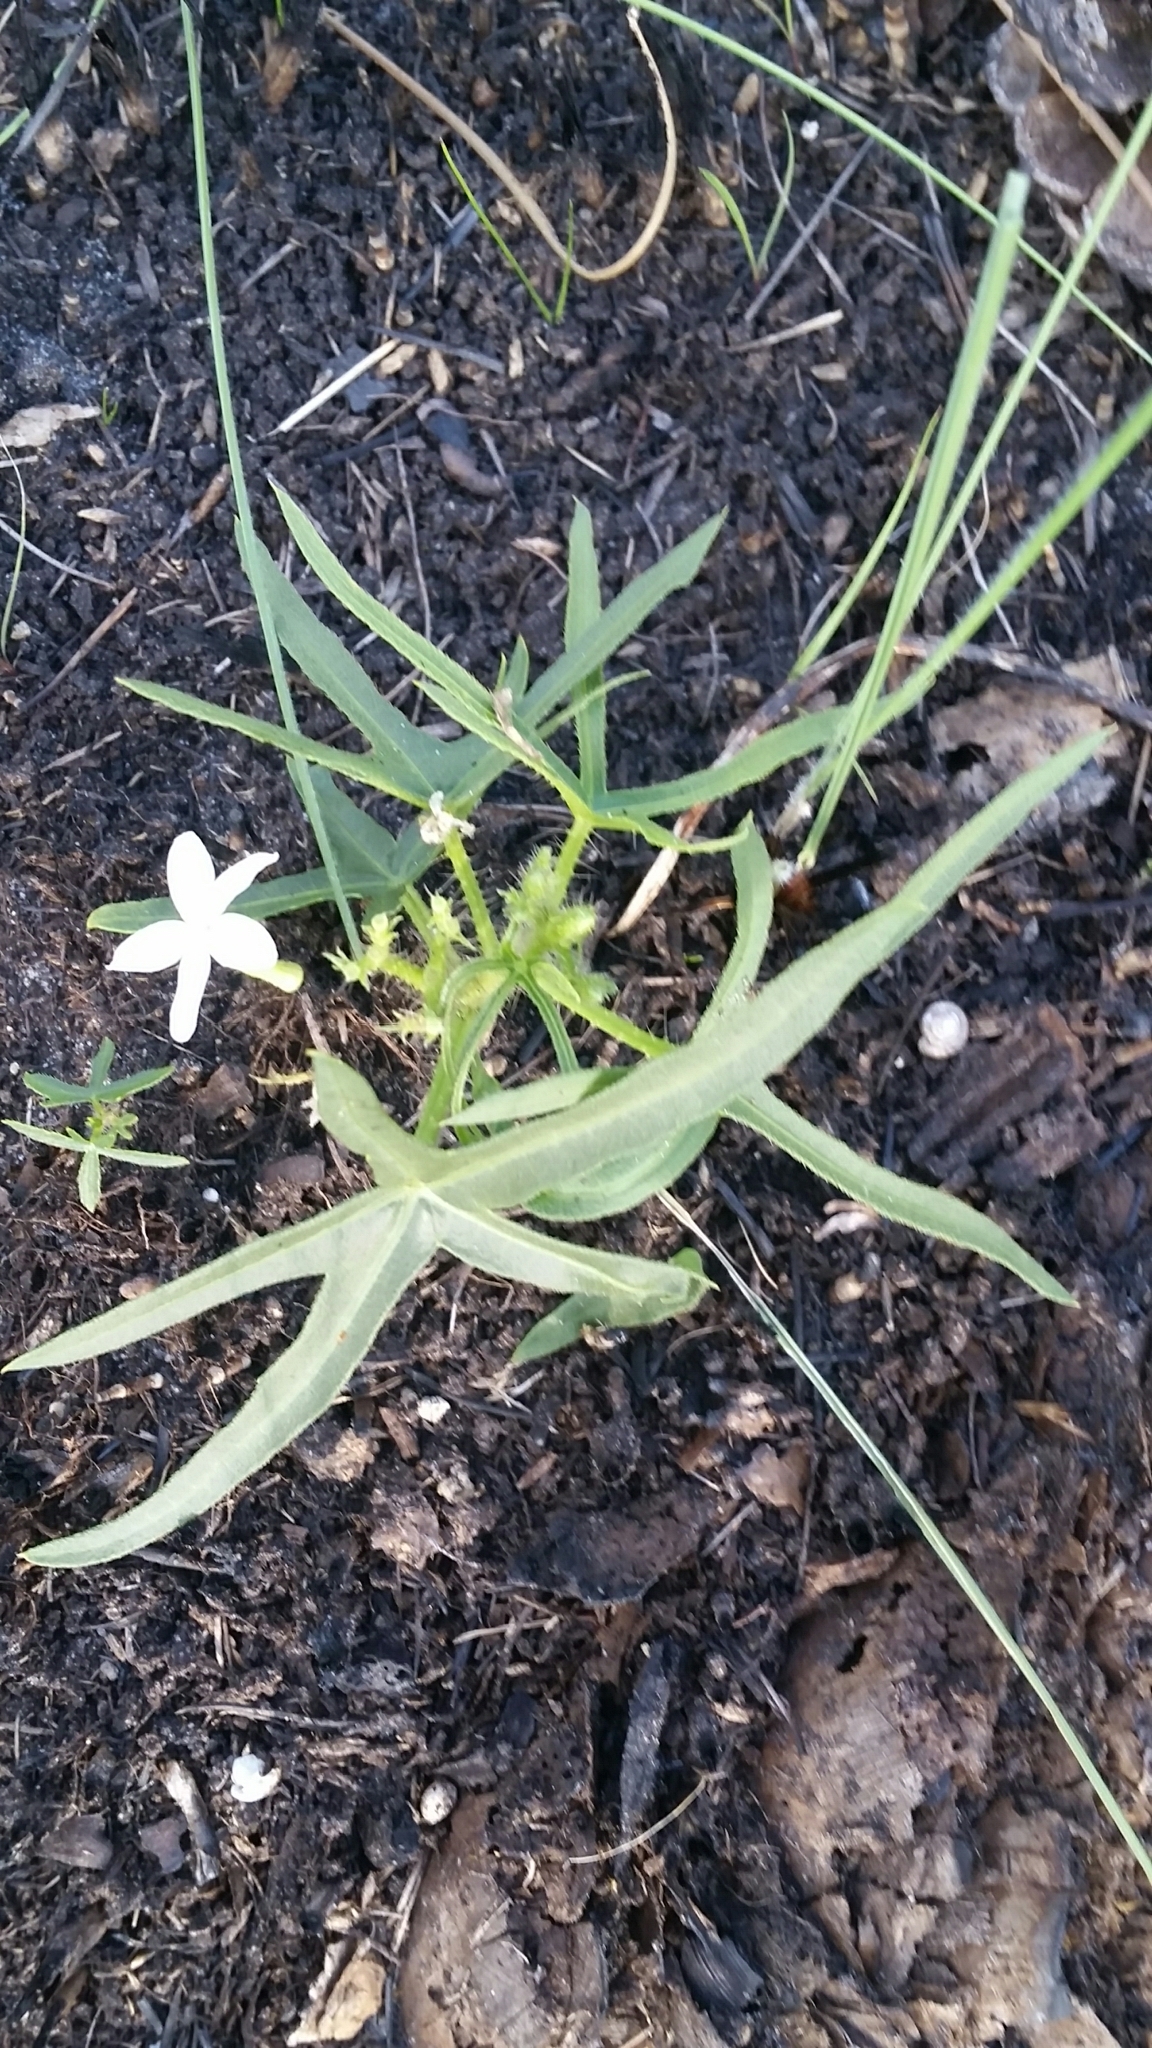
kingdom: Plantae
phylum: Tracheophyta
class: Magnoliopsida
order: Malpighiales
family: Euphorbiaceae
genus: Cnidoscolus
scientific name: Cnidoscolus stimulosus
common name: Bull-nettle
